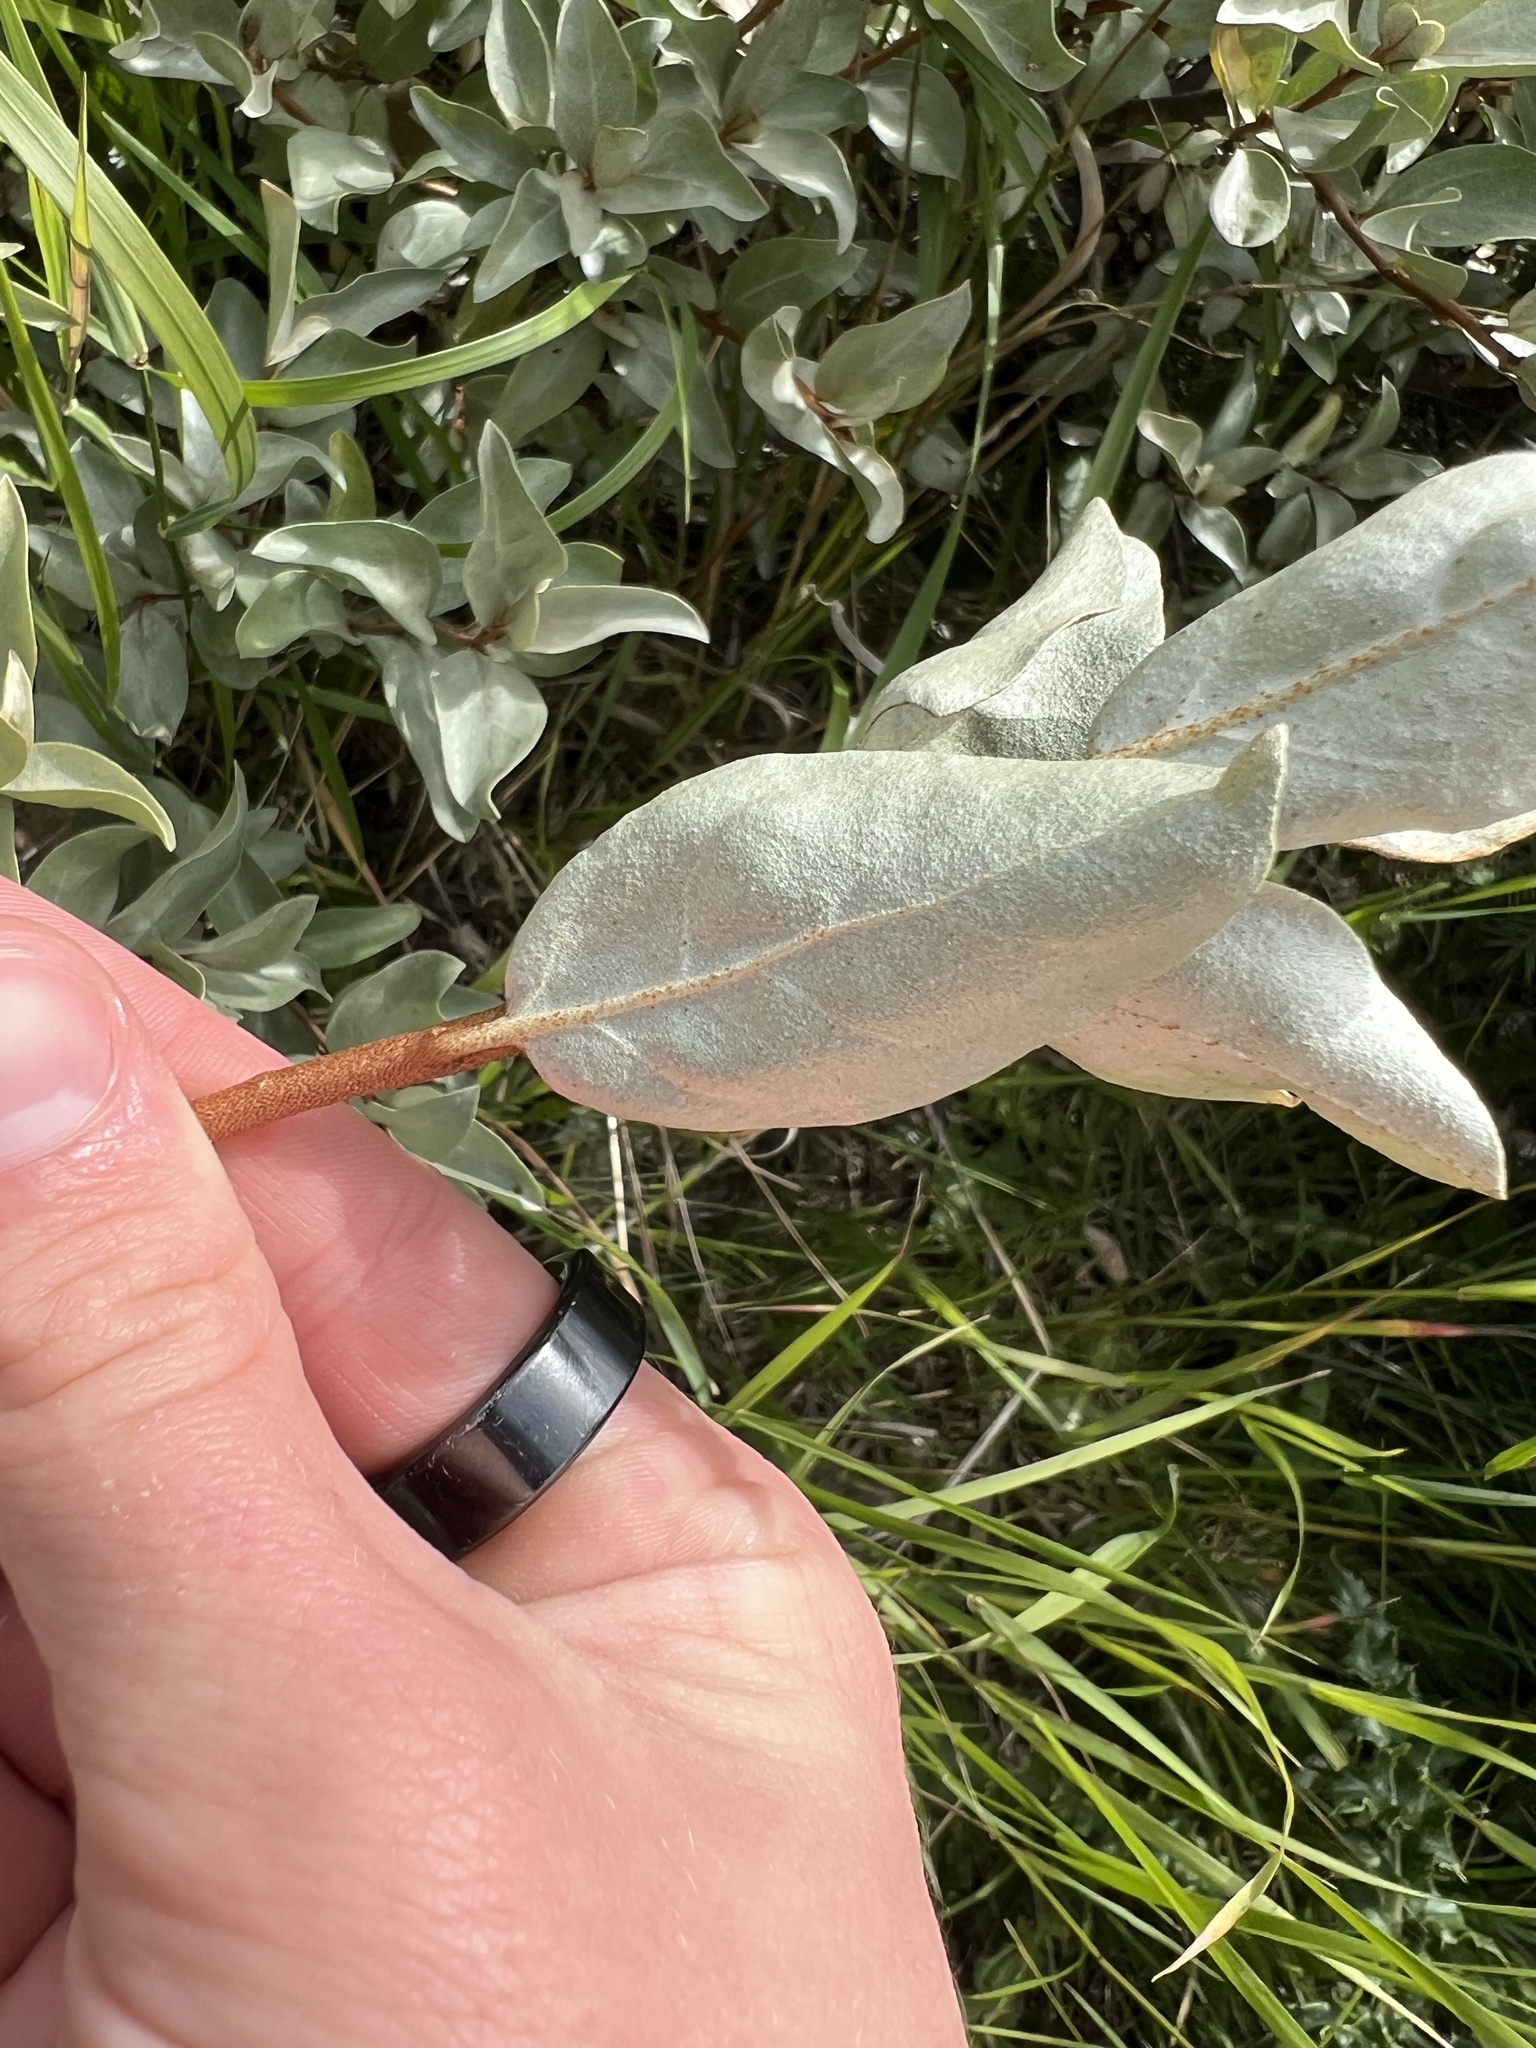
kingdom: Plantae
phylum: Tracheophyta
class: Magnoliopsida
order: Rosales
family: Elaeagnaceae
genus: Elaeagnus
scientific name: Elaeagnus commutata
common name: Silverberry
